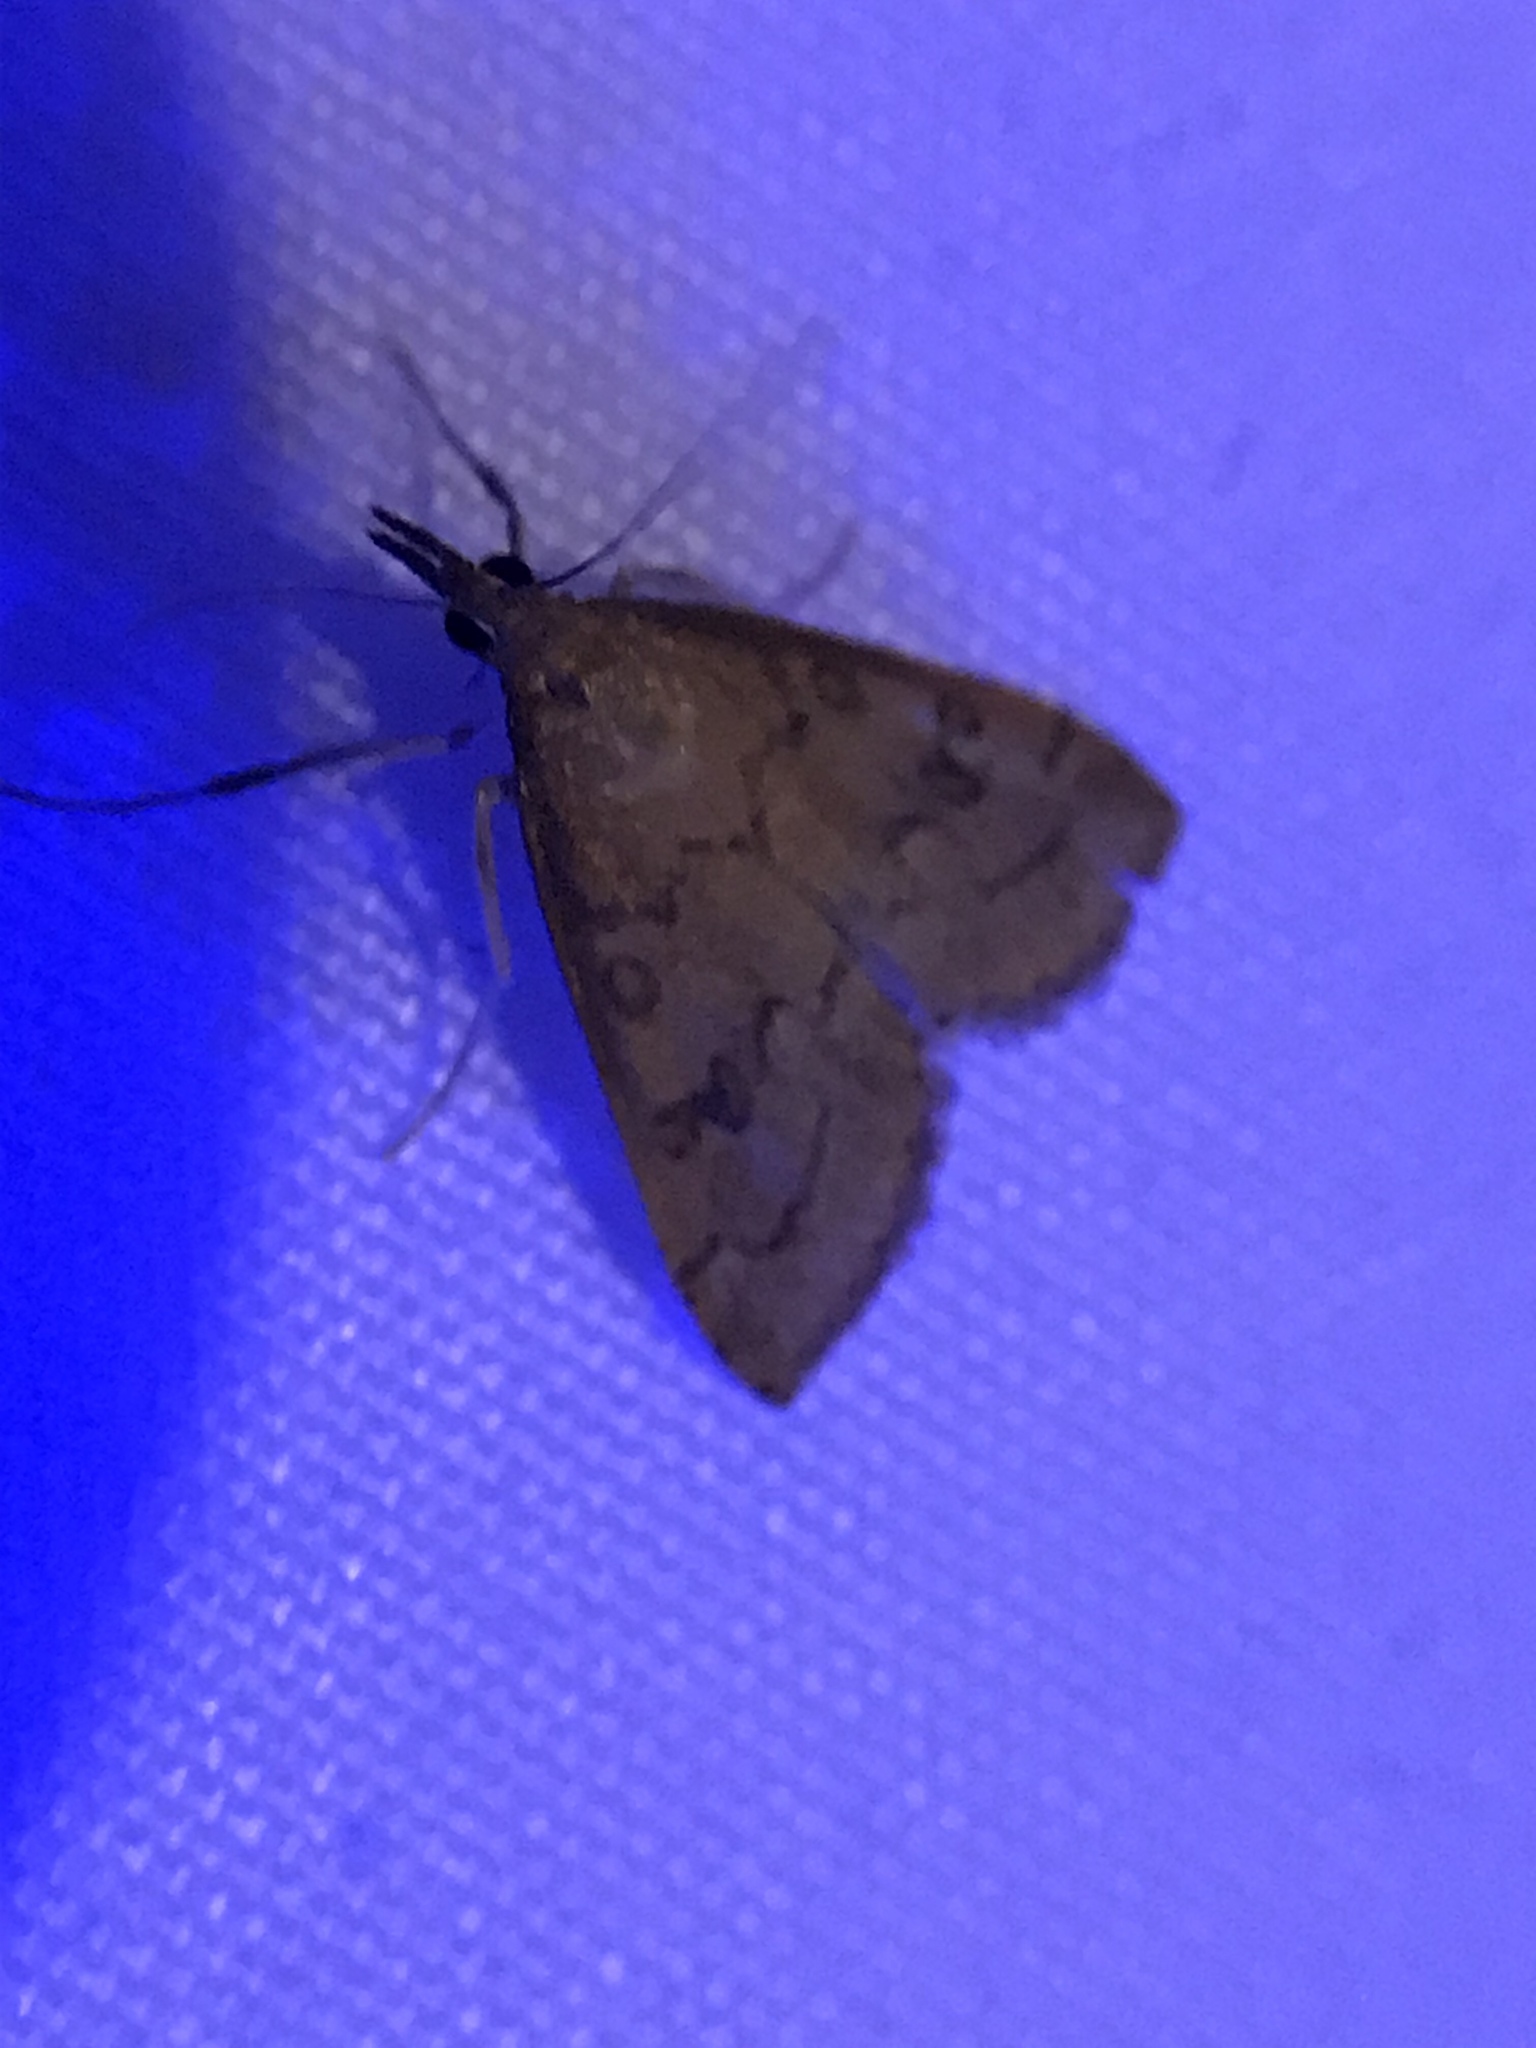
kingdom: Animalia
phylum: Arthropoda
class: Insecta
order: Lepidoptera
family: Crambidae
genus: Udea
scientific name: Udea rubigalis
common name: Celery leaftier moth
